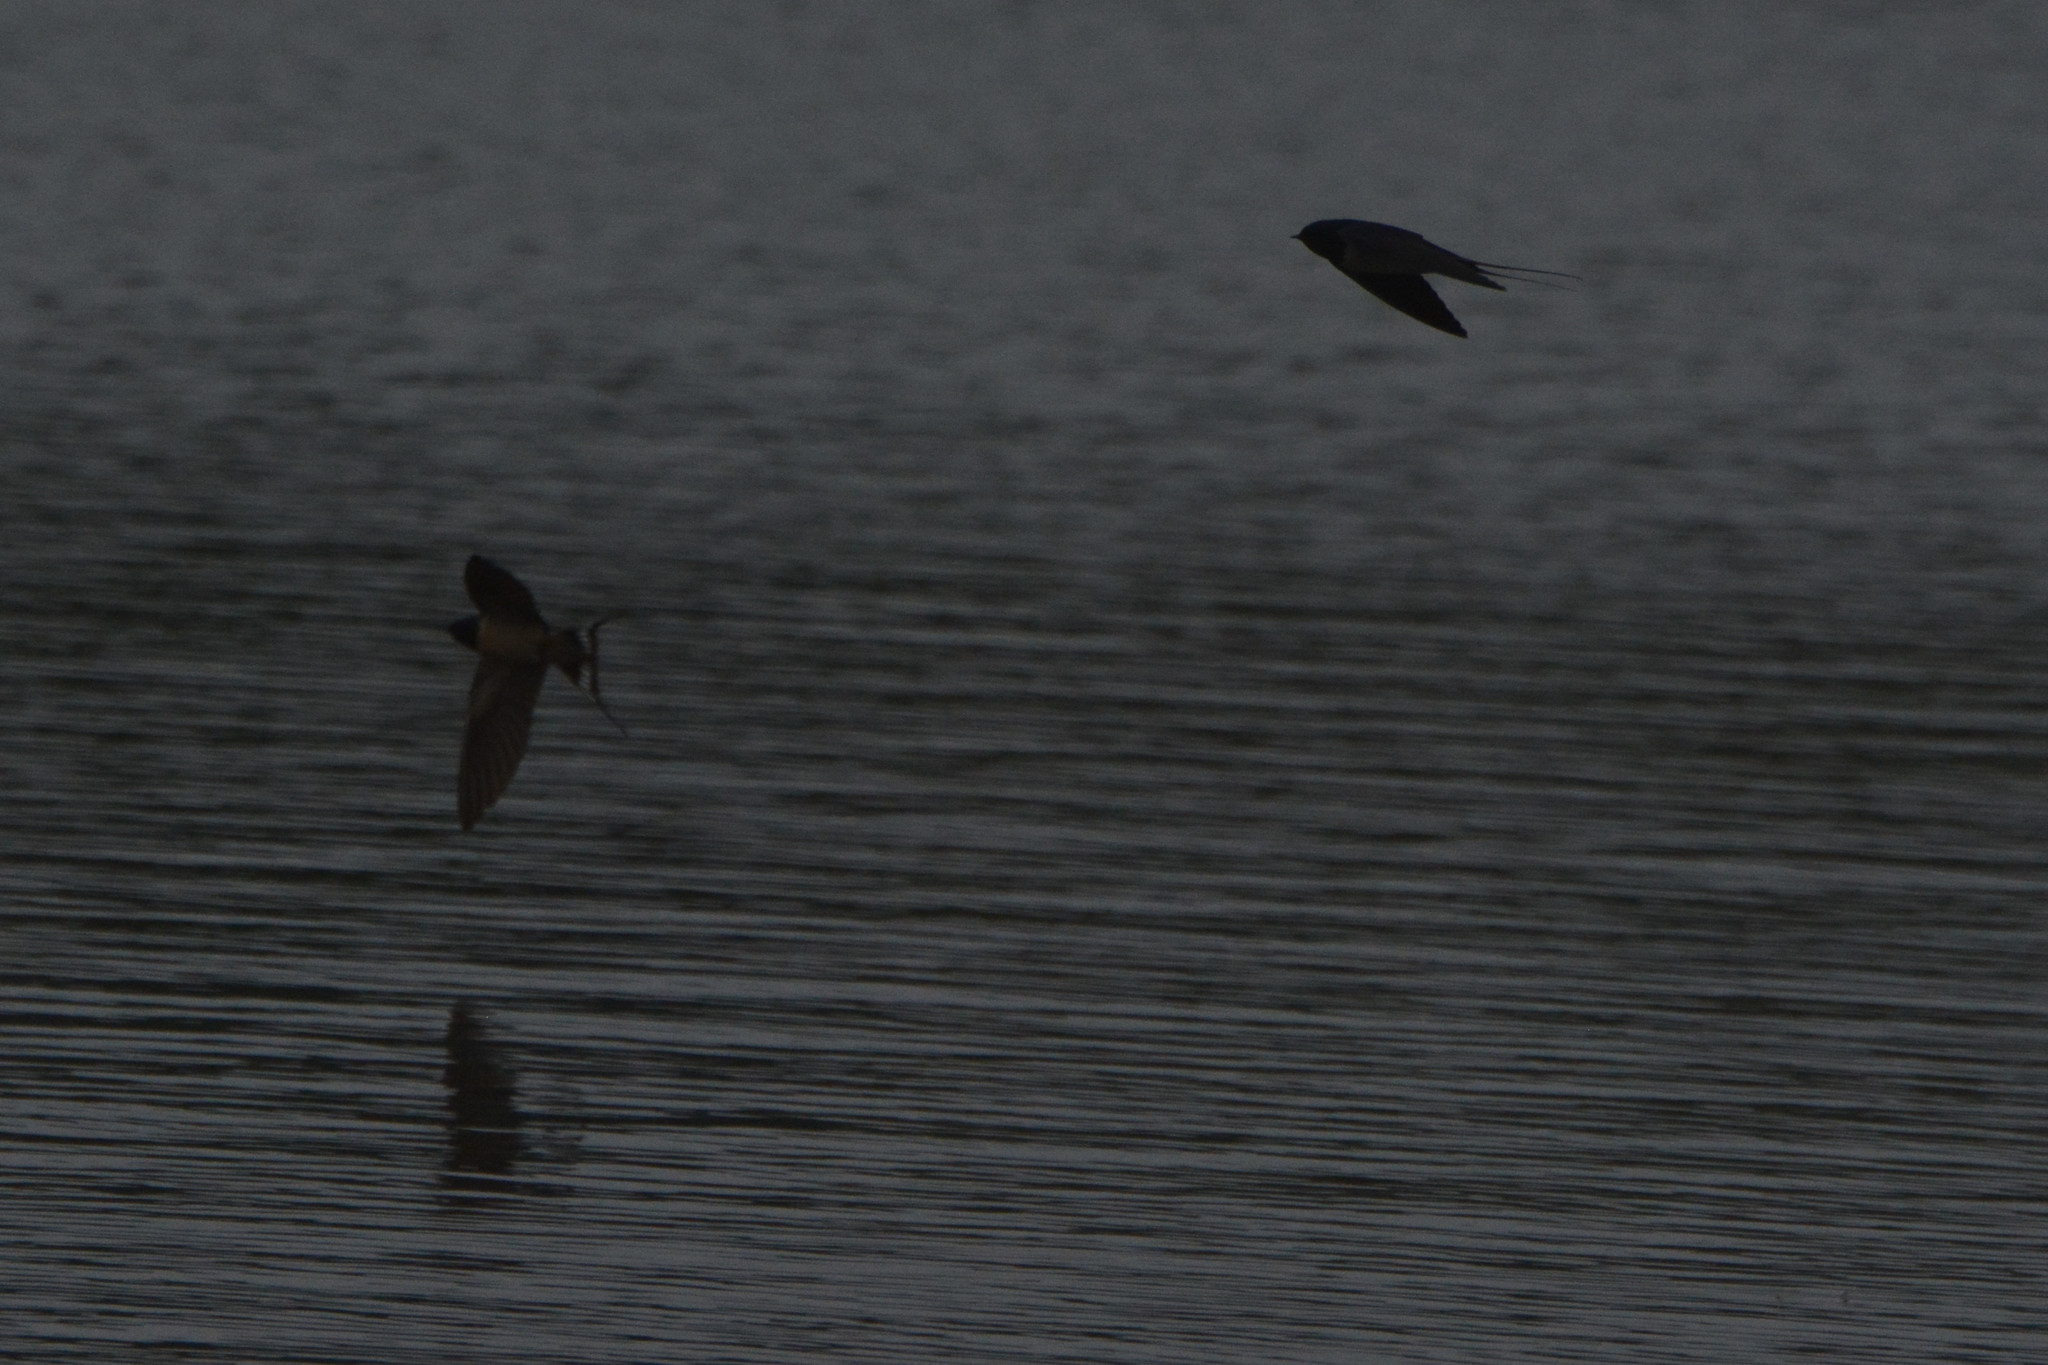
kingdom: Animalia
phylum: Chordata
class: Aves
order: Passeriformes
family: Hirundinidae
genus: Hirundo
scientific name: Hirundo rustica
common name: Barn swallow
